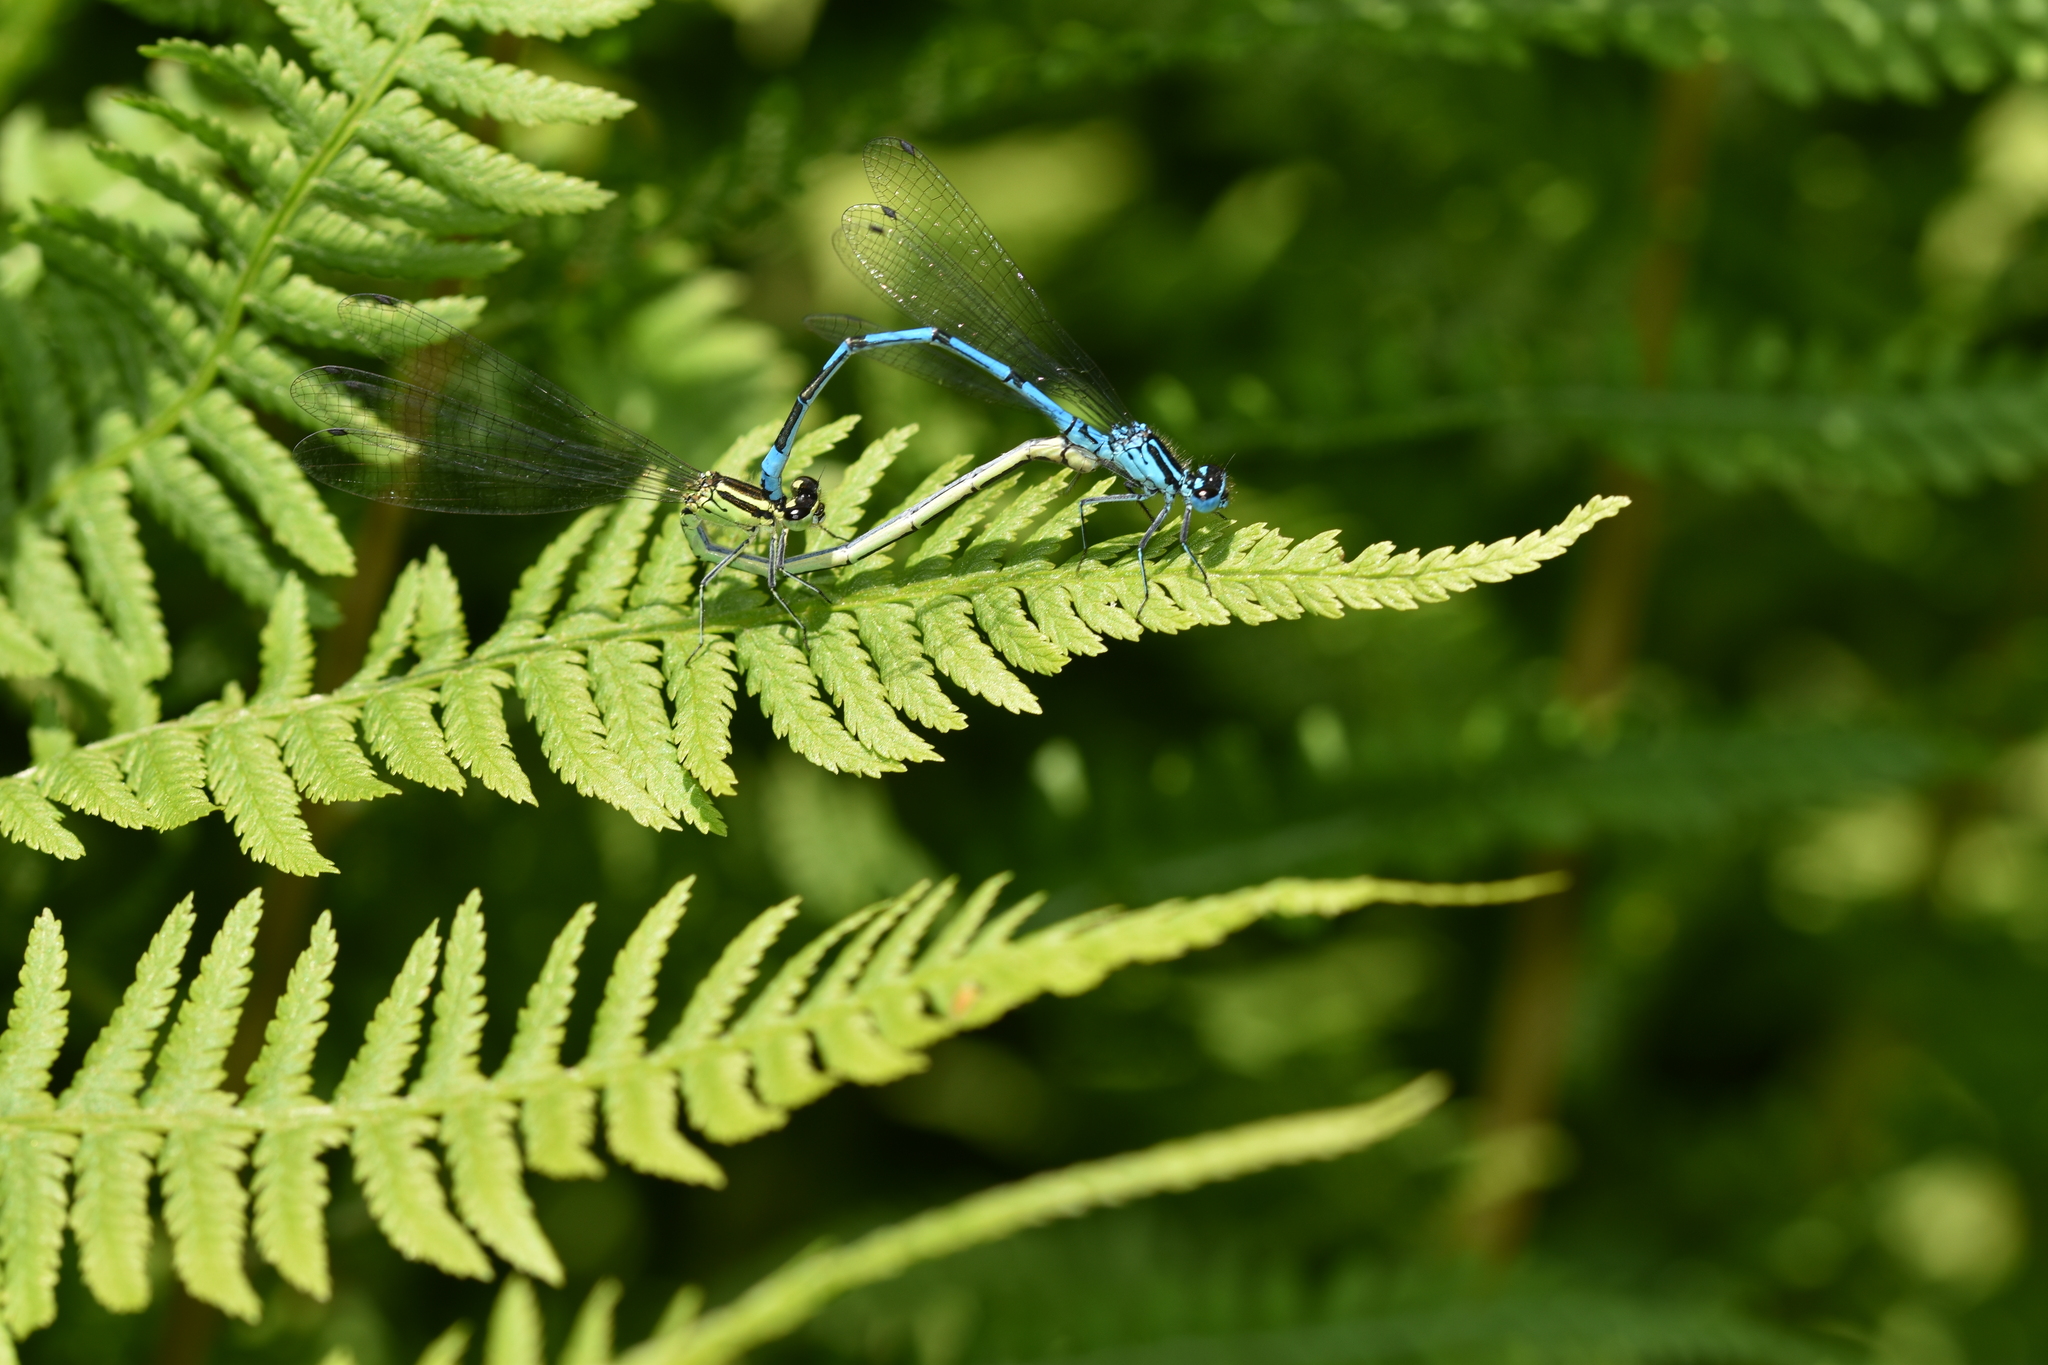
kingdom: Animalia
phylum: Arthropoda
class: Insecta
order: Odonata
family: Coenagrionidae
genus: Coenagrion
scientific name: Coenagrion puella
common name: Azure damselfly
